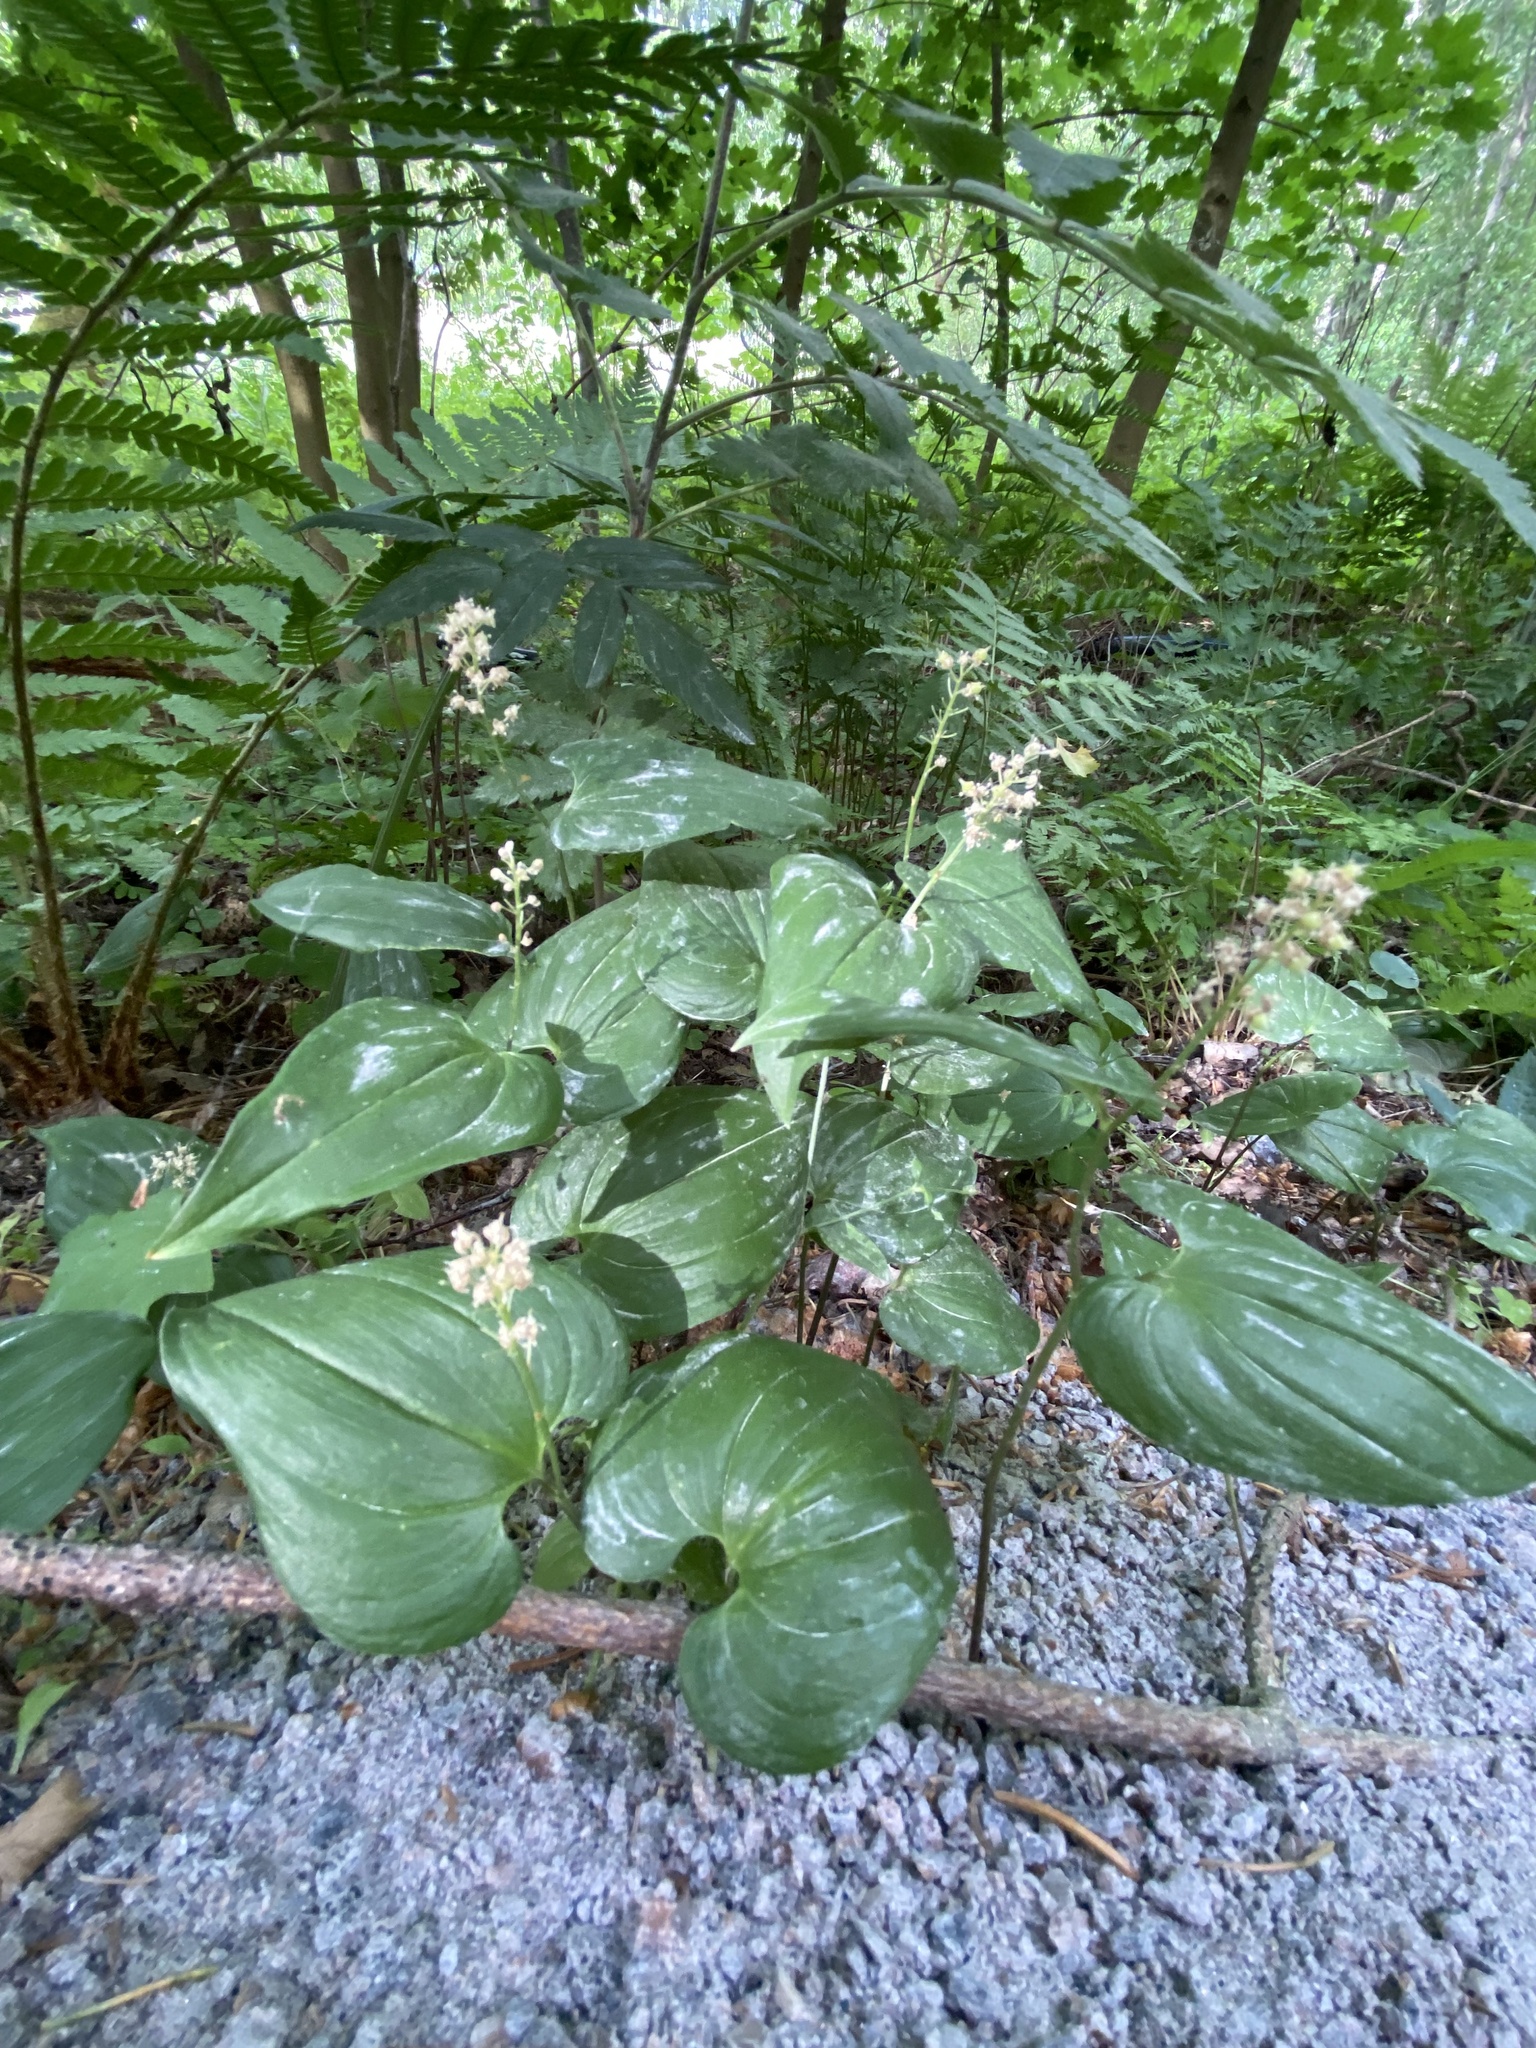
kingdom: Plantae
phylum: Tracheophyta
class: Liliopsida
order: Asparagales
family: Asparagaceae
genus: Maianthemum
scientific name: Maianthemum bifolium
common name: May lily
